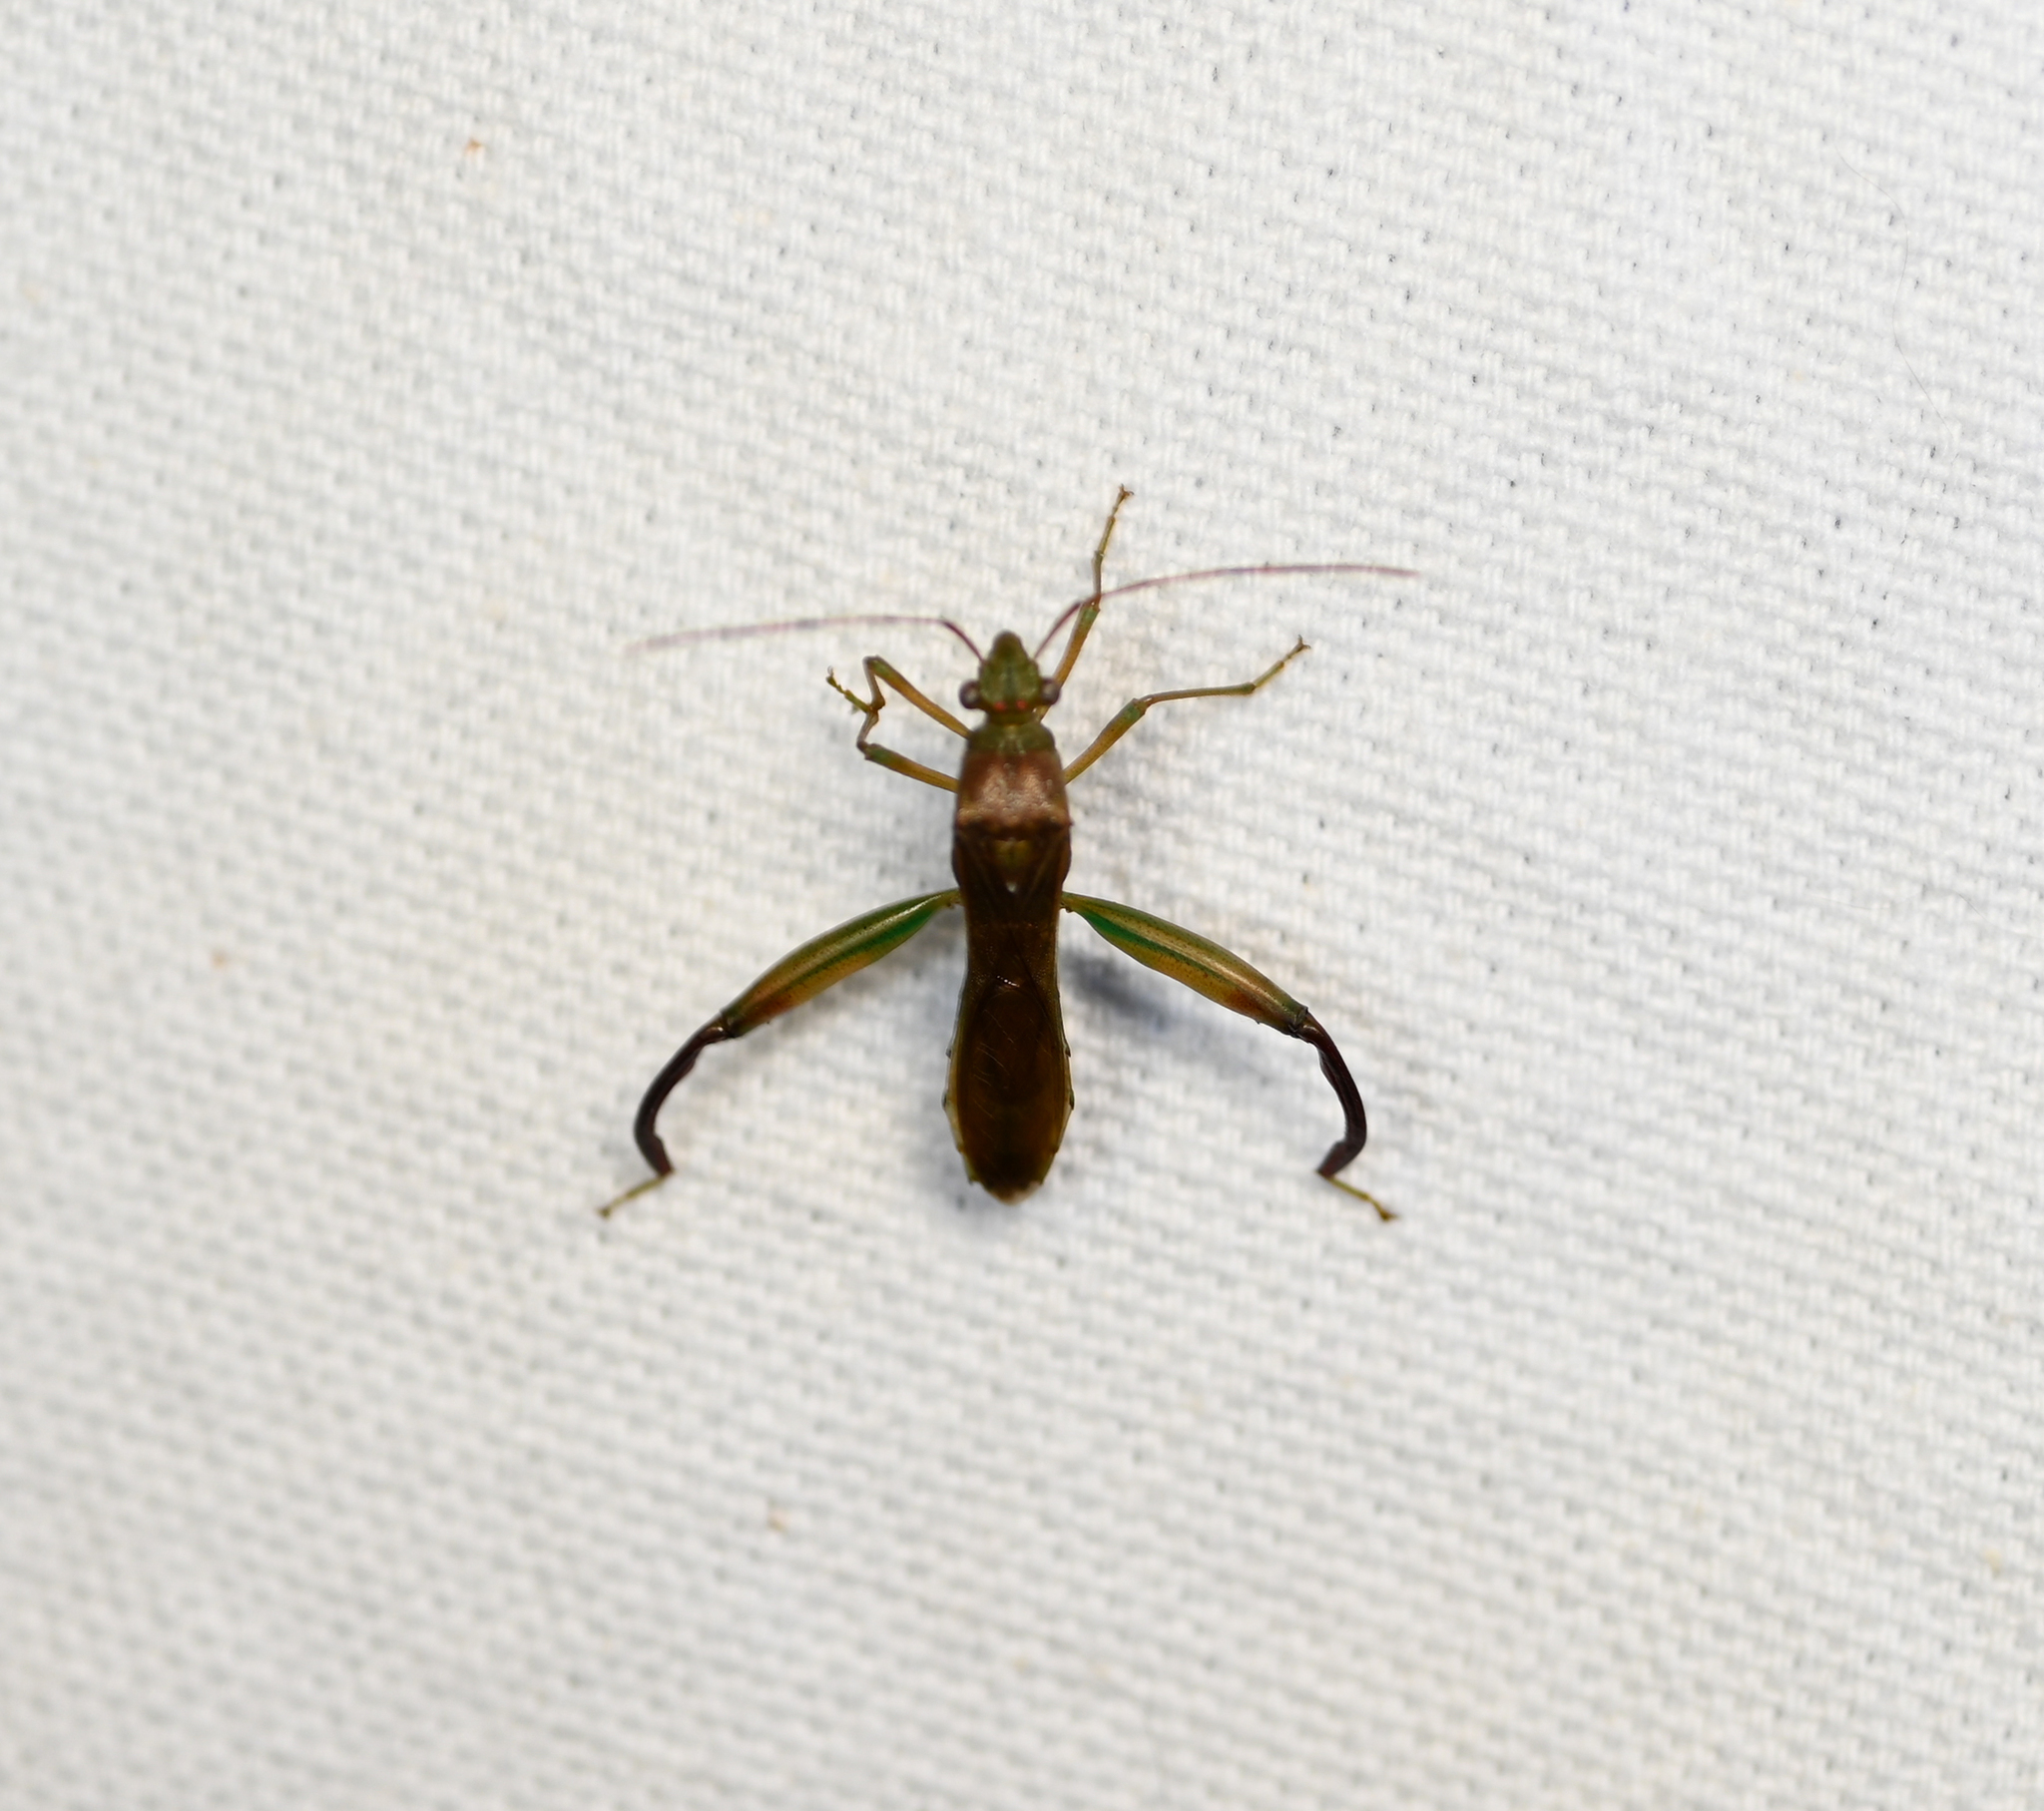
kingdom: Animalia
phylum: Arthropoda
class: Insecta
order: Hemiptera
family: Alydidae
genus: Hyalymenus
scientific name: Hyalymenus tarsatus
